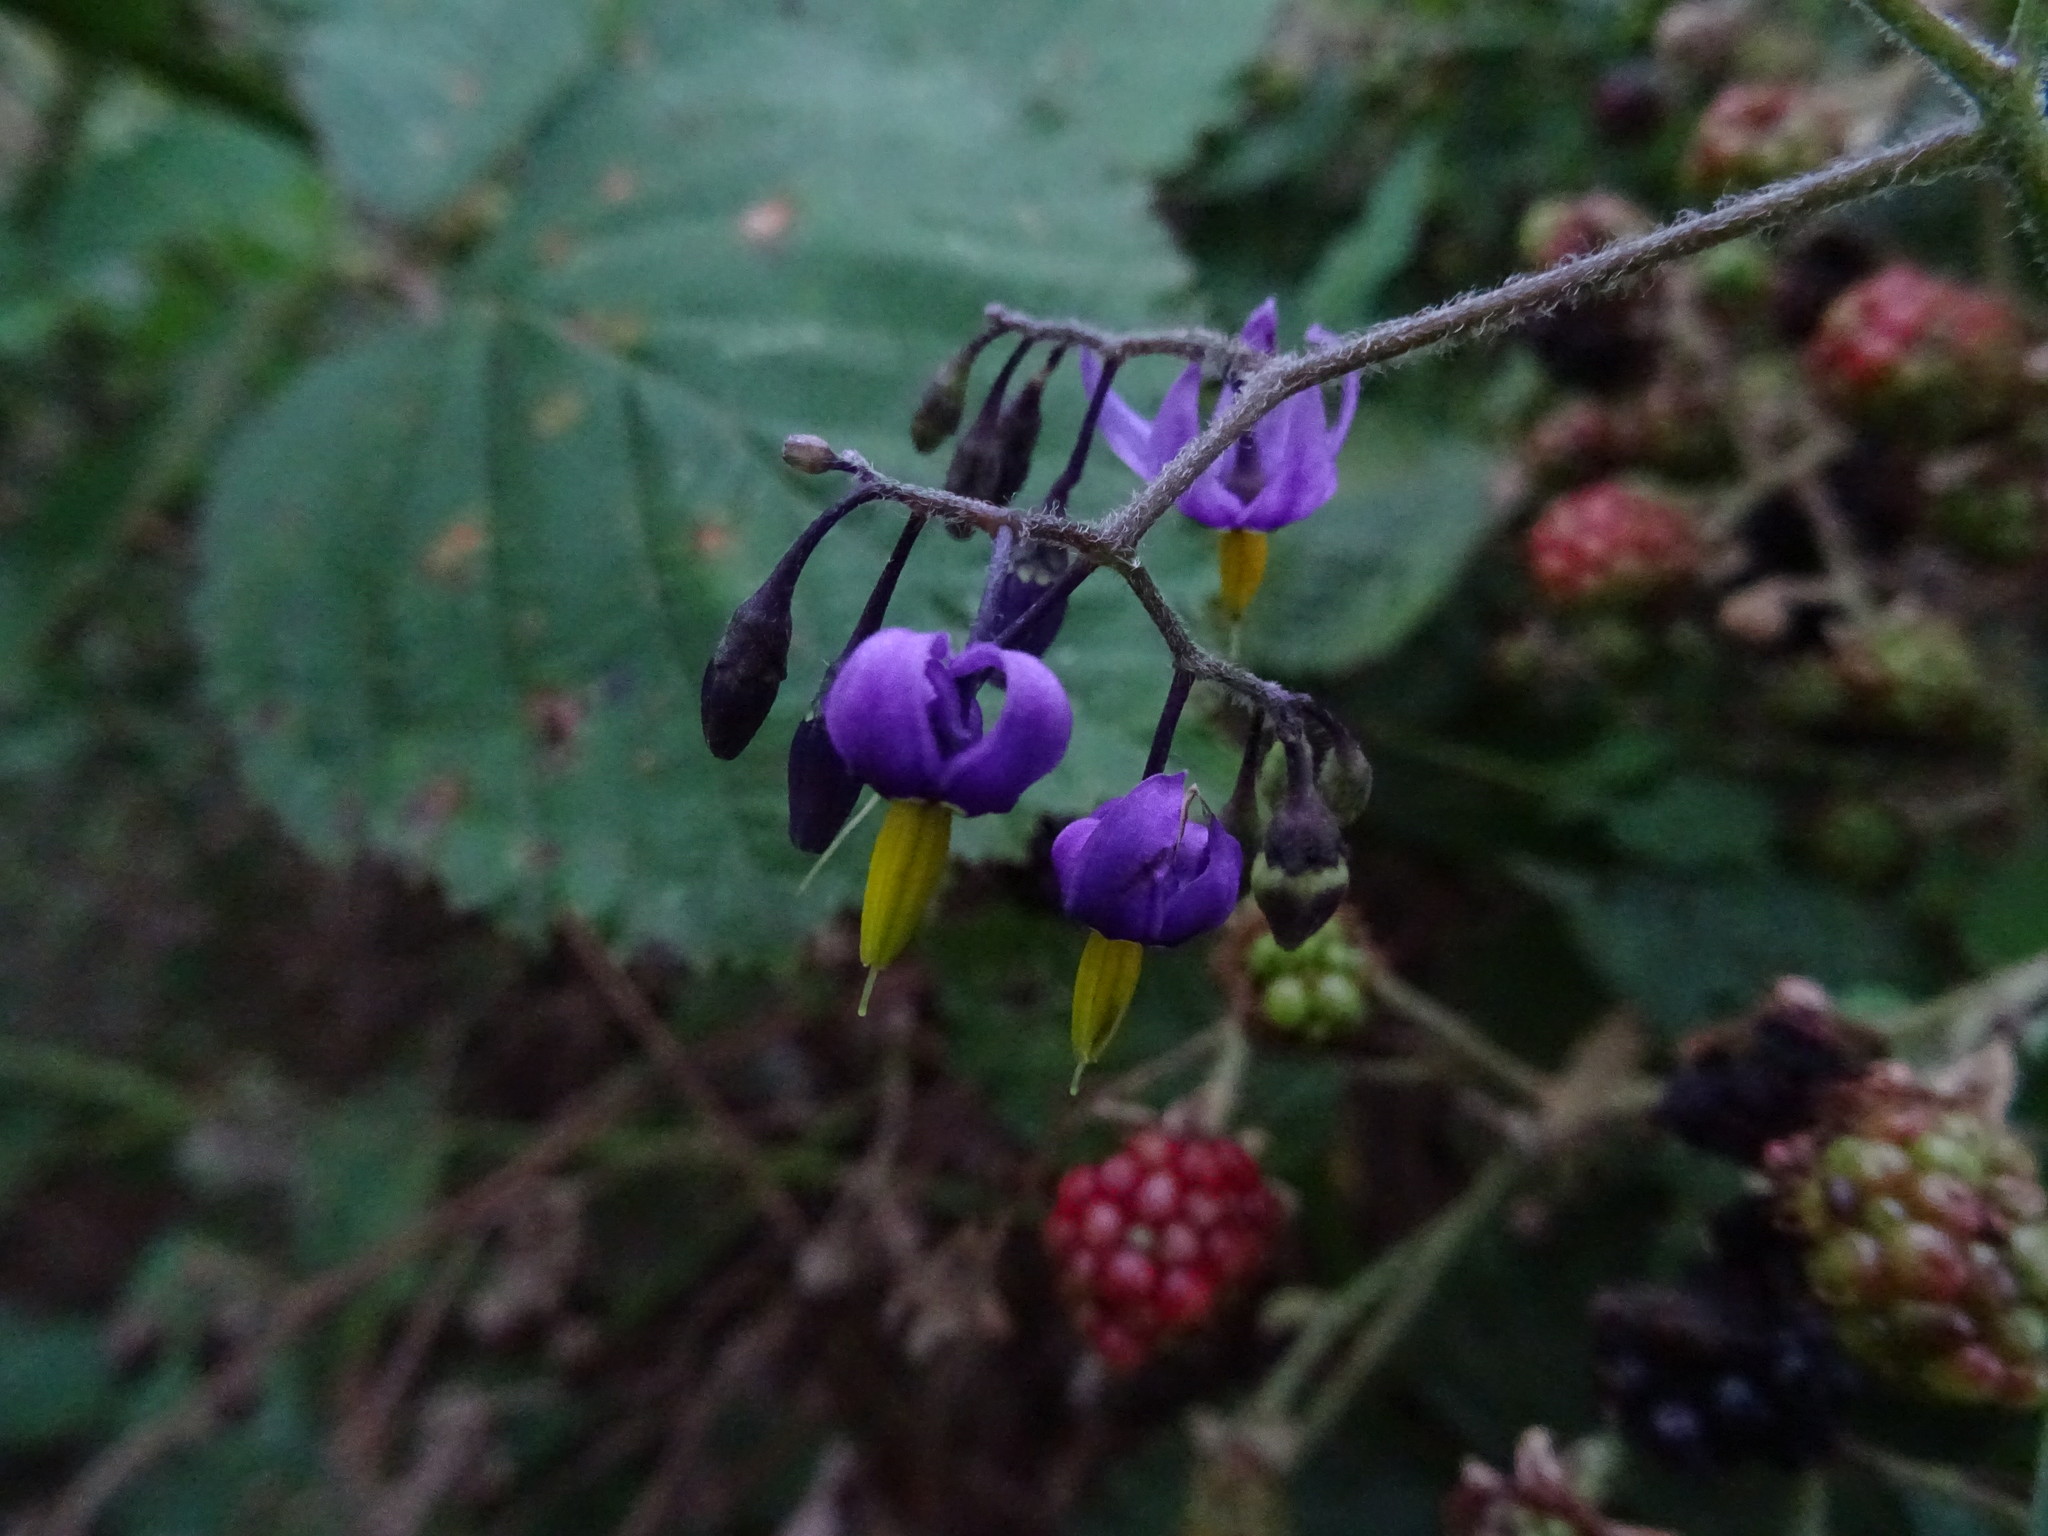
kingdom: Plantae
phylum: Tracheophyta
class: Magnoliopsida
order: Solanales
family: Solanaceae
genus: Solanum
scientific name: Solanum dulcamara
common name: Climbing nightshade
